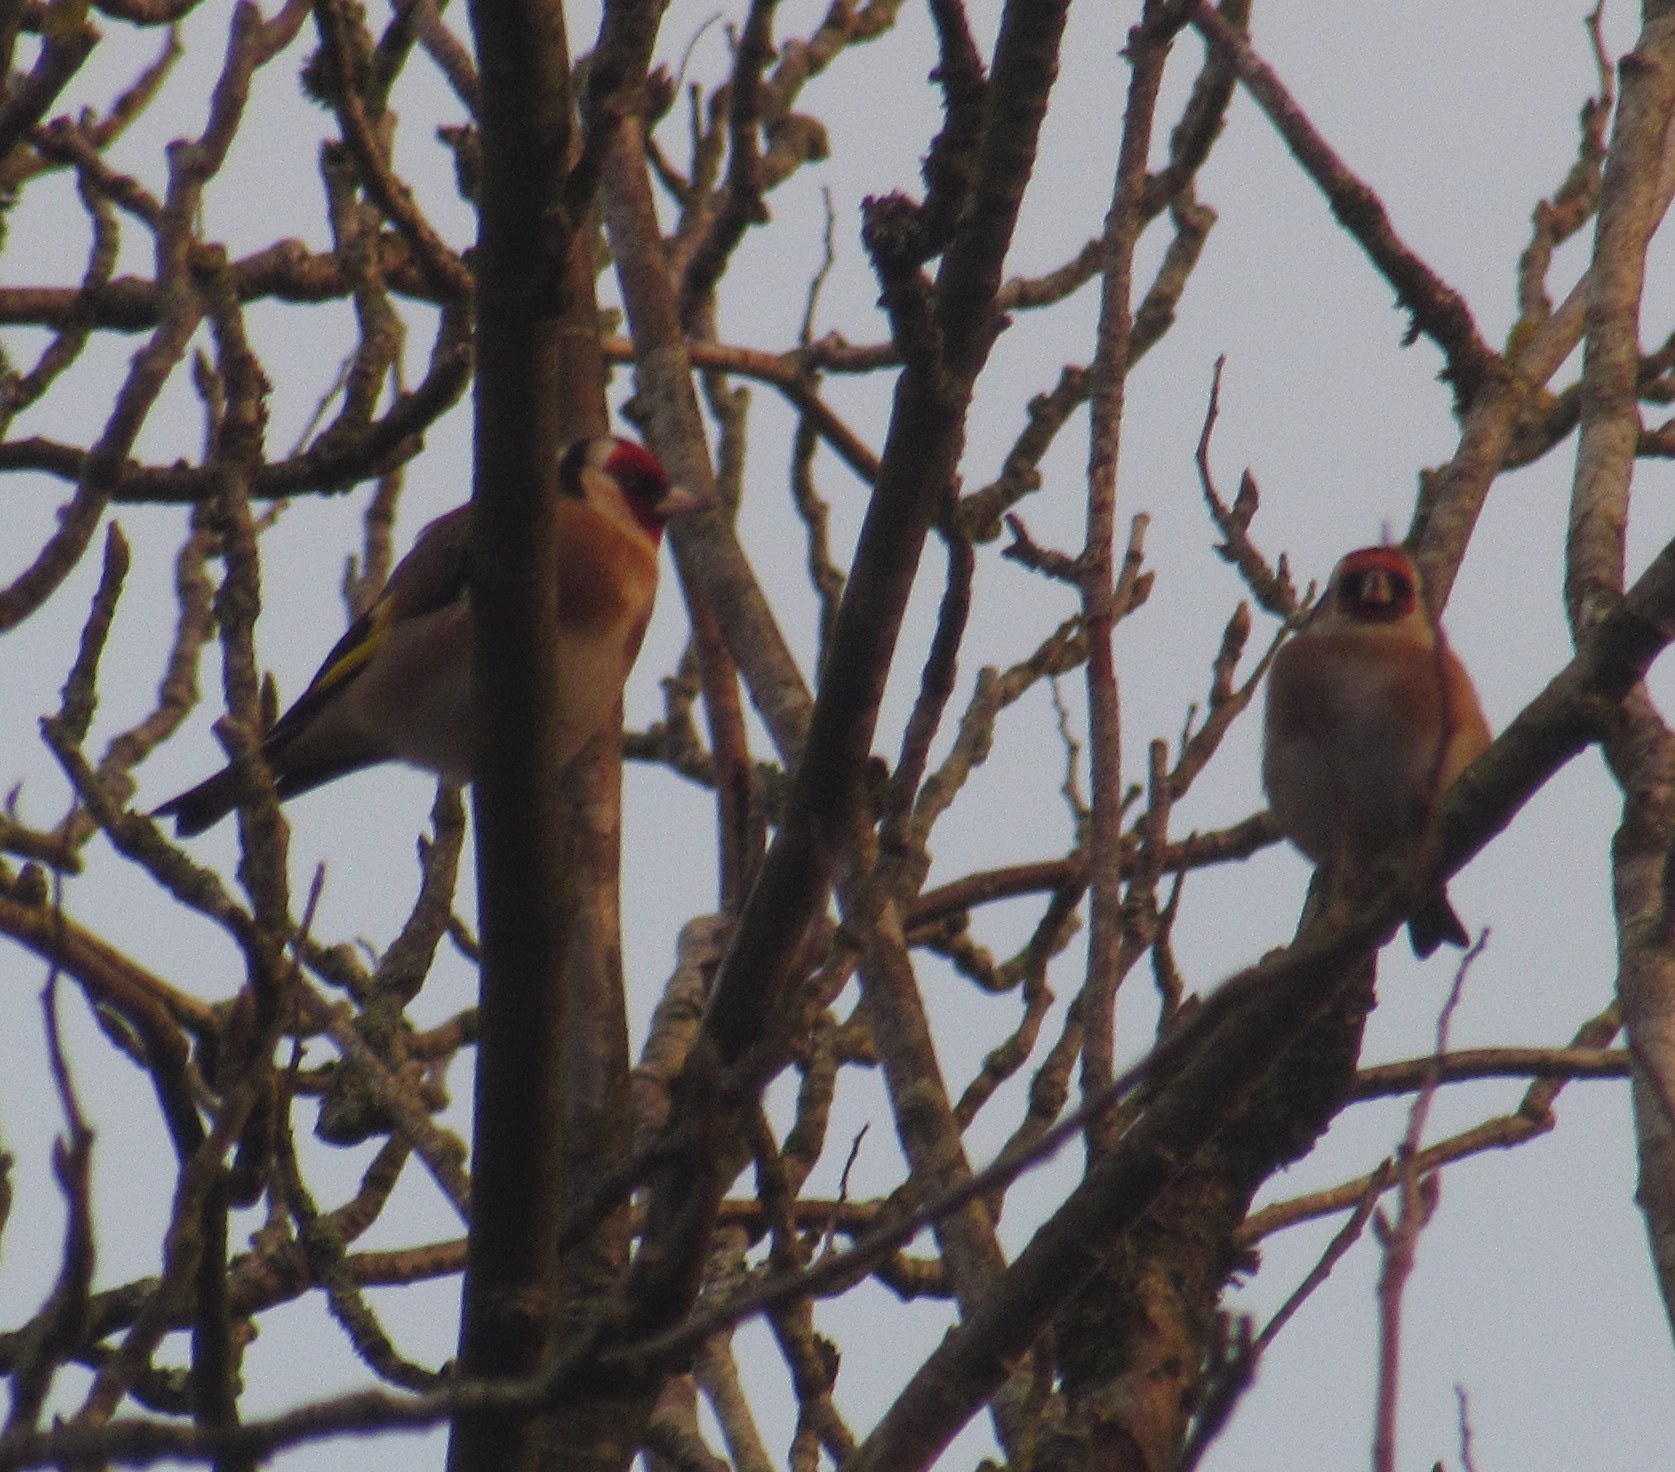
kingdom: Animalia
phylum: Chordata
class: Aves
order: Passeriformes
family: Fringillidae
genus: Carduelis
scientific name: Carduelis carduelis
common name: European goldfinch
